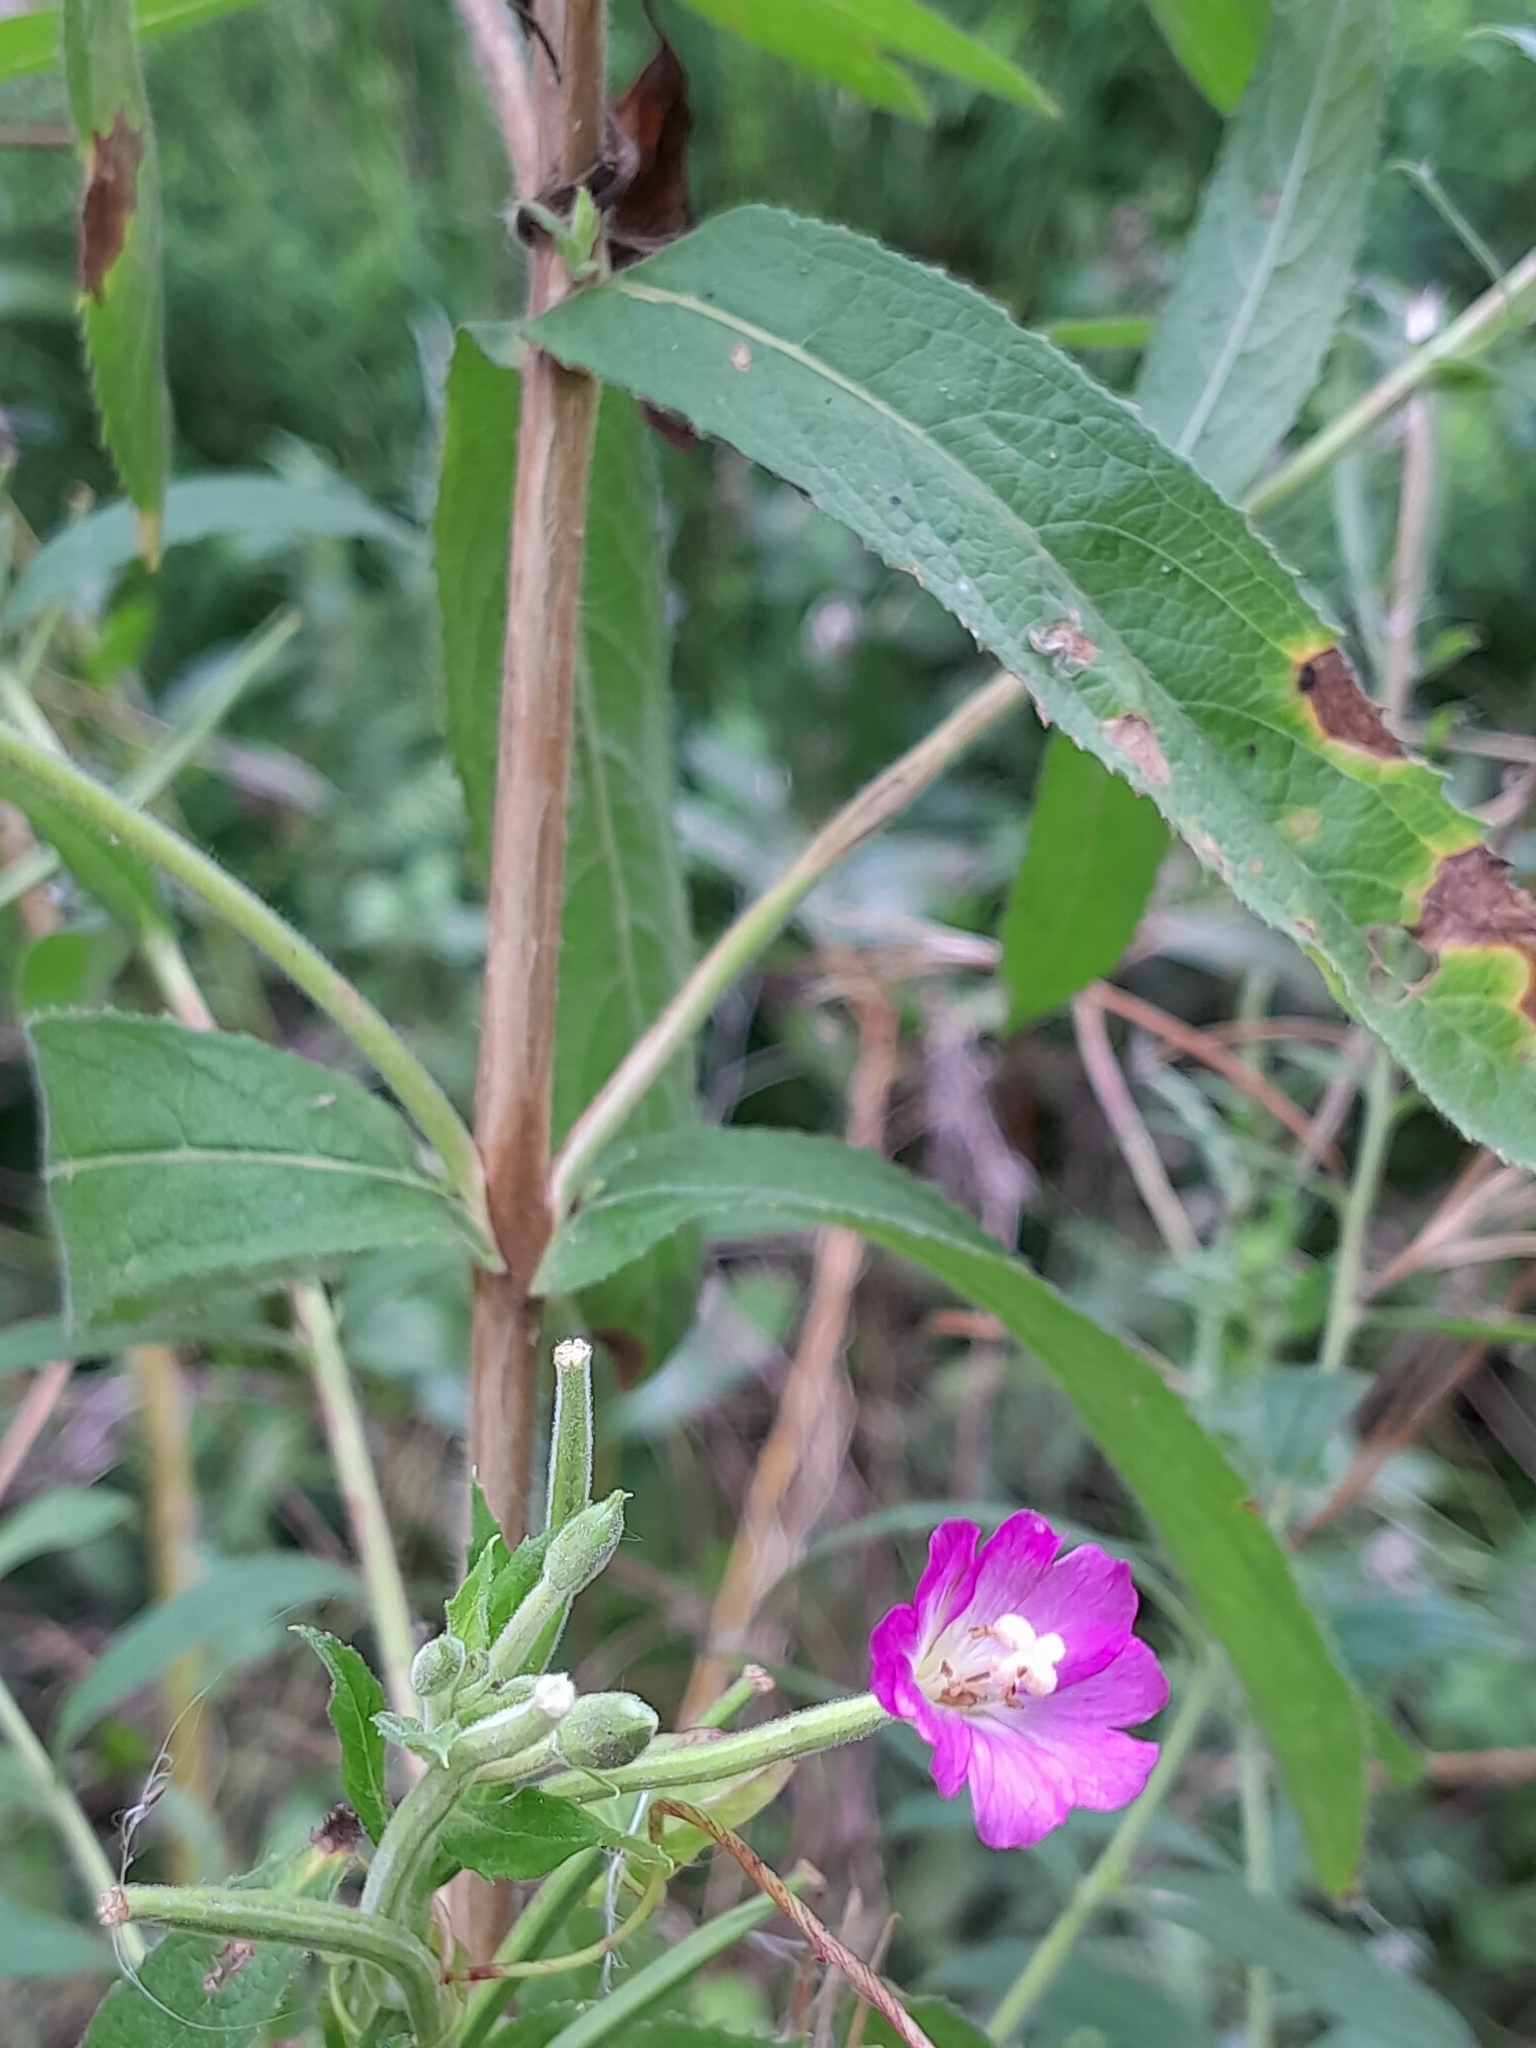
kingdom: Plantae
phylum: Tracheophyta
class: Magnoliopsida
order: Myrtales
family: Onagraceae
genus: Epilobium
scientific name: Epilobium hirsutum
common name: Great willowherb
